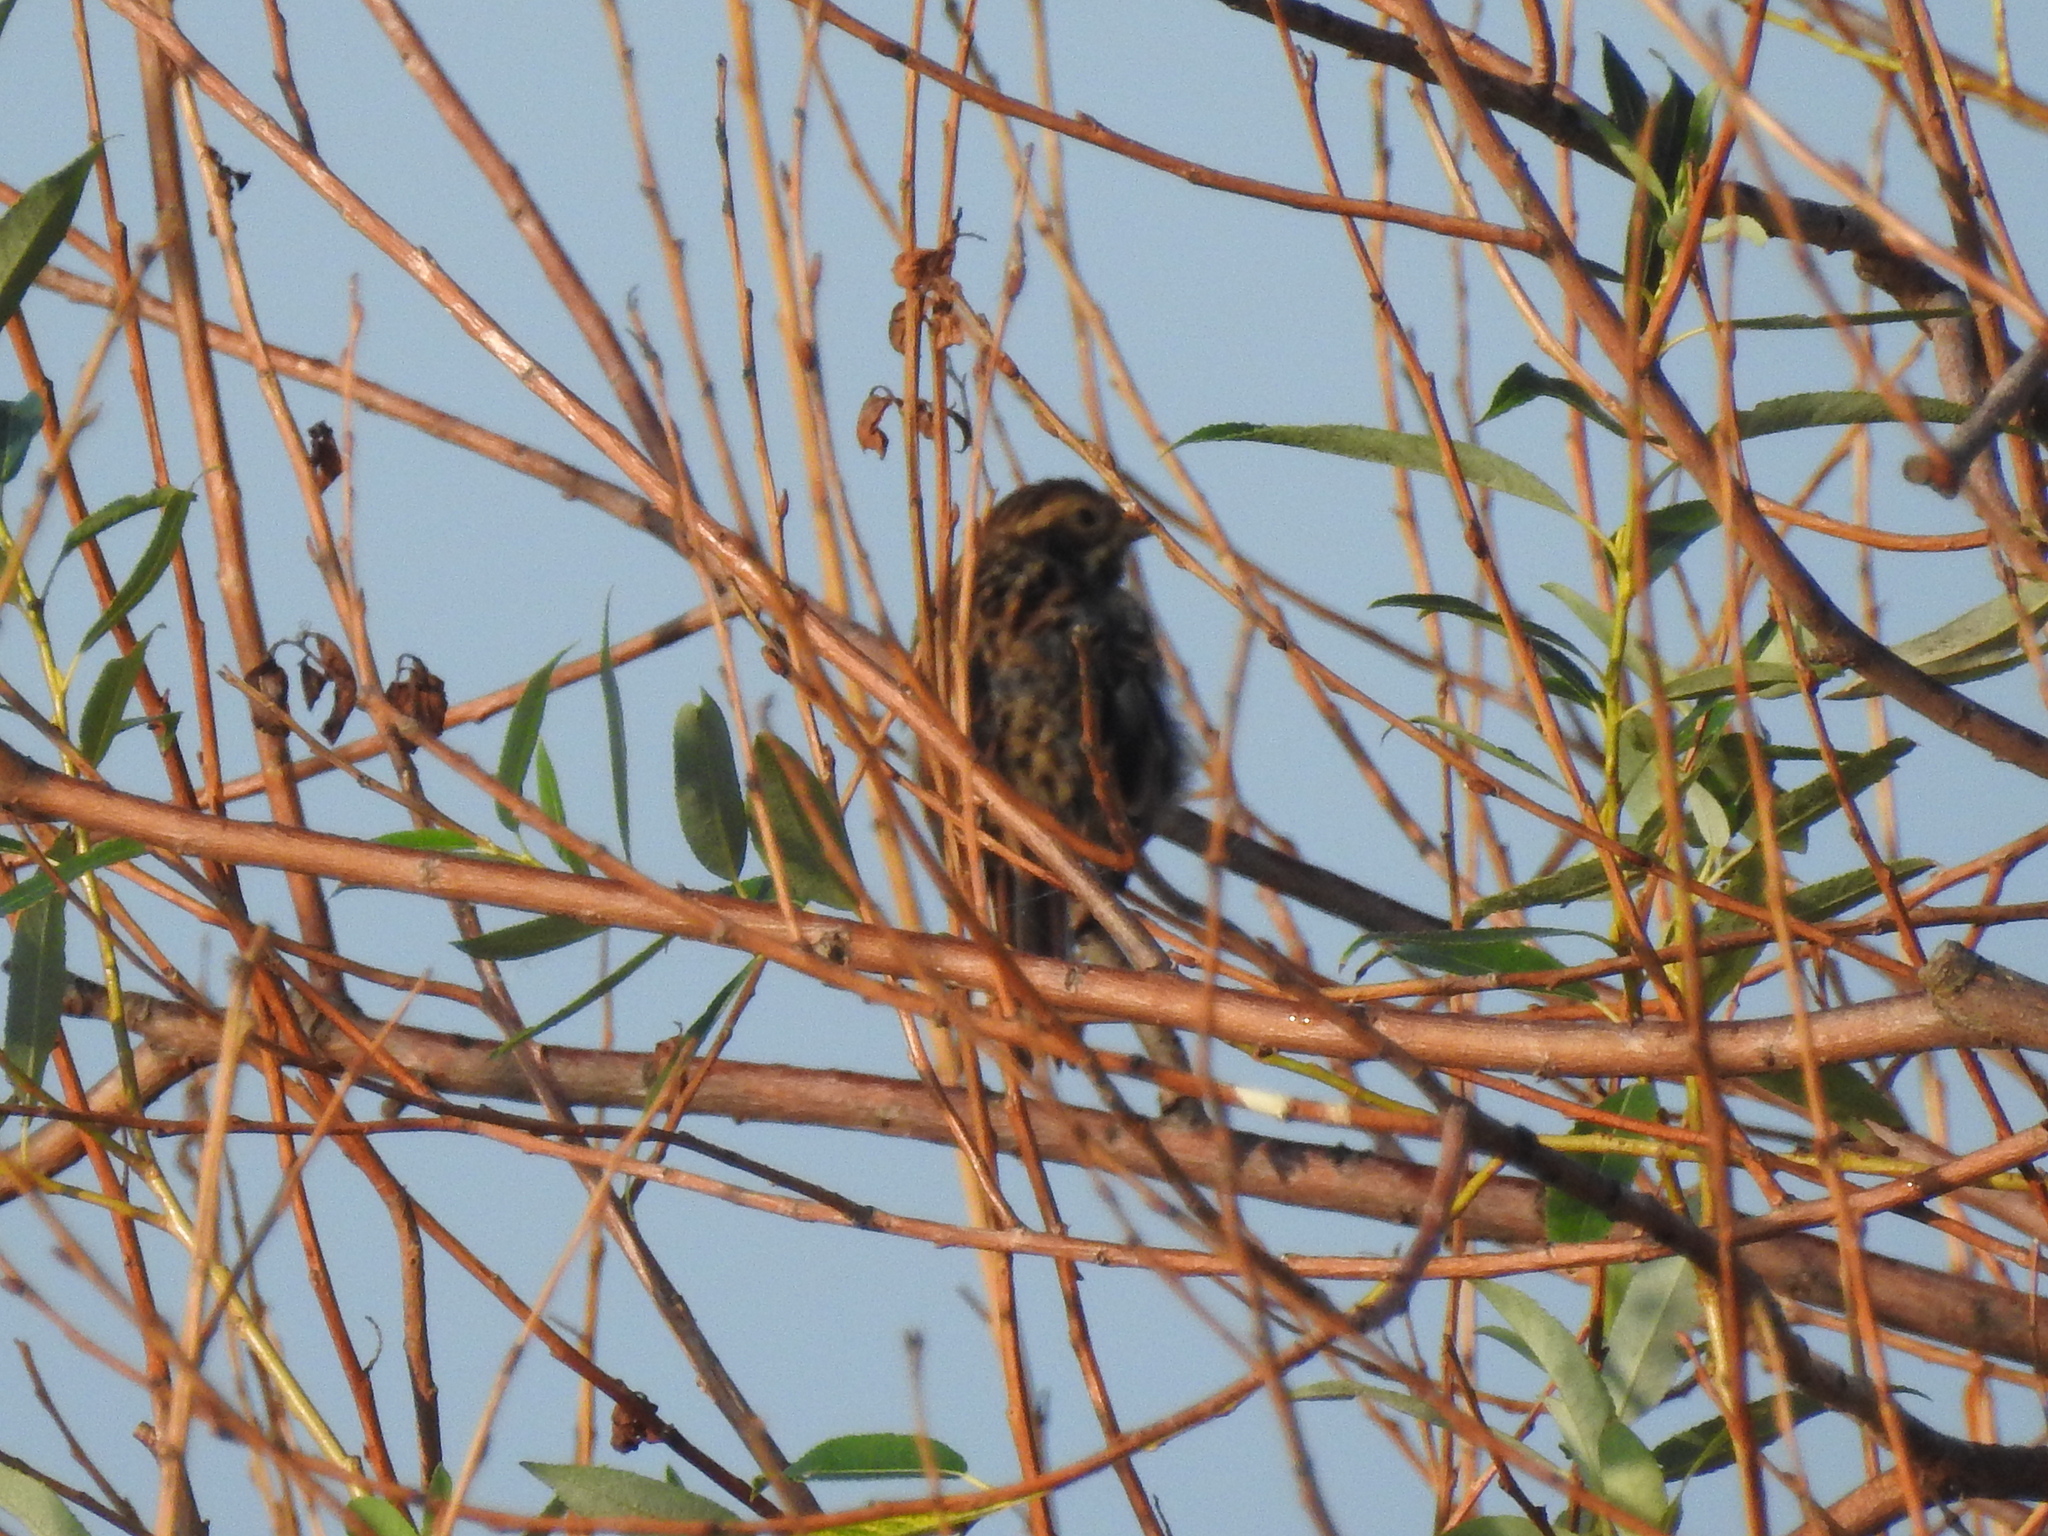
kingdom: Animalia
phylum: Chordata
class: Aves
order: Passeriformes
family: Emberizidae
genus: Emberiza
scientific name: Emberiza schoeniclus
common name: Reed bunting
